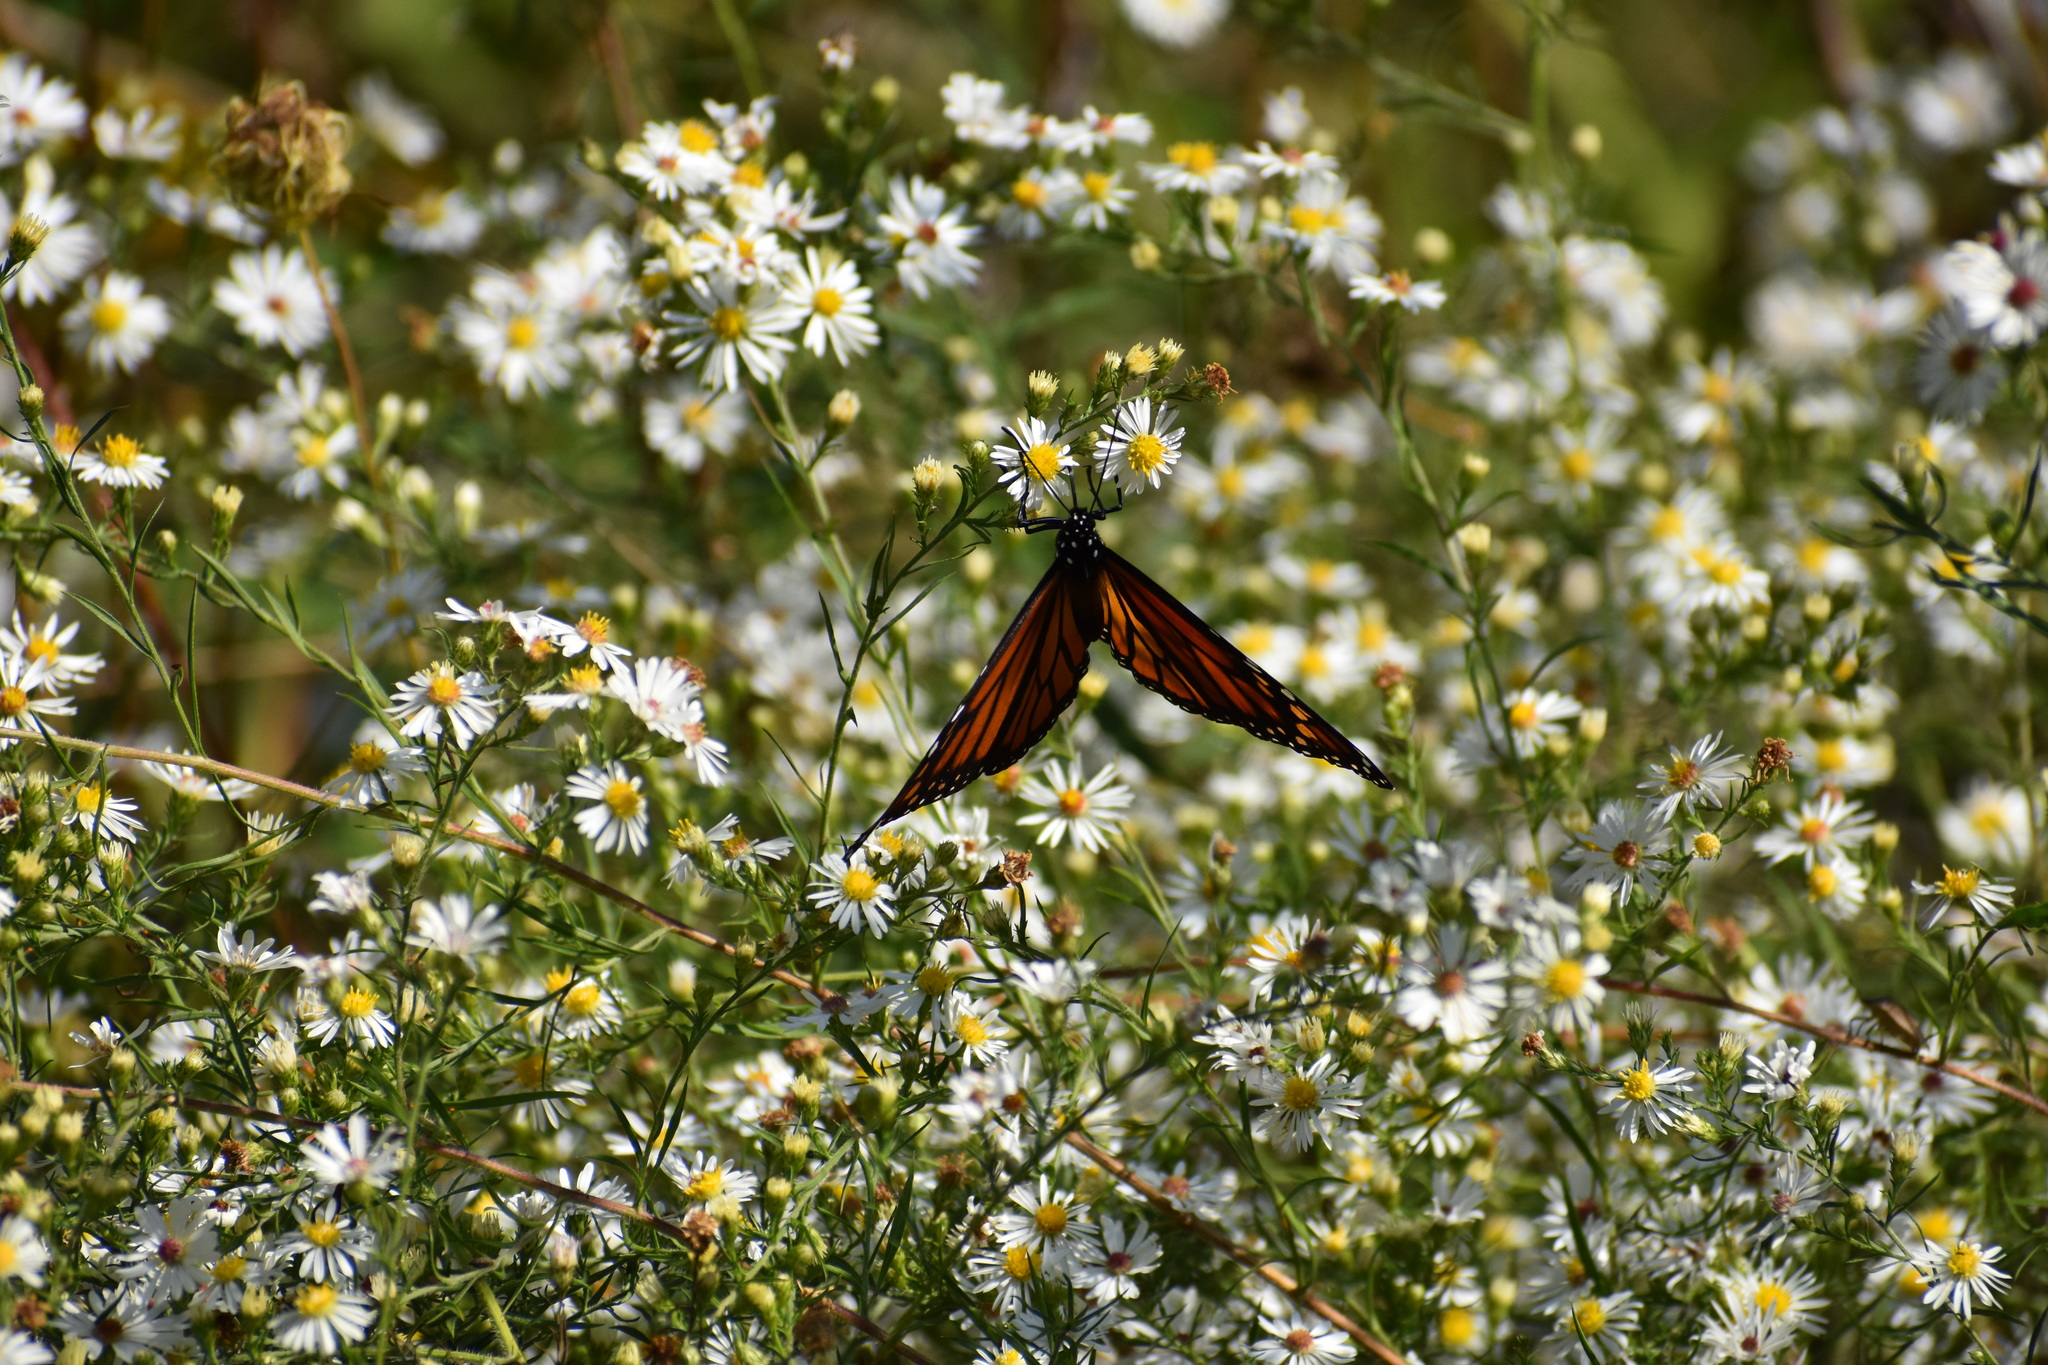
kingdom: Animalia
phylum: Arthropoda
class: Insecta
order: Lepidoptera
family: Nymphalidae
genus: Danaus
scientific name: Danaus plexippus
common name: Monarch
